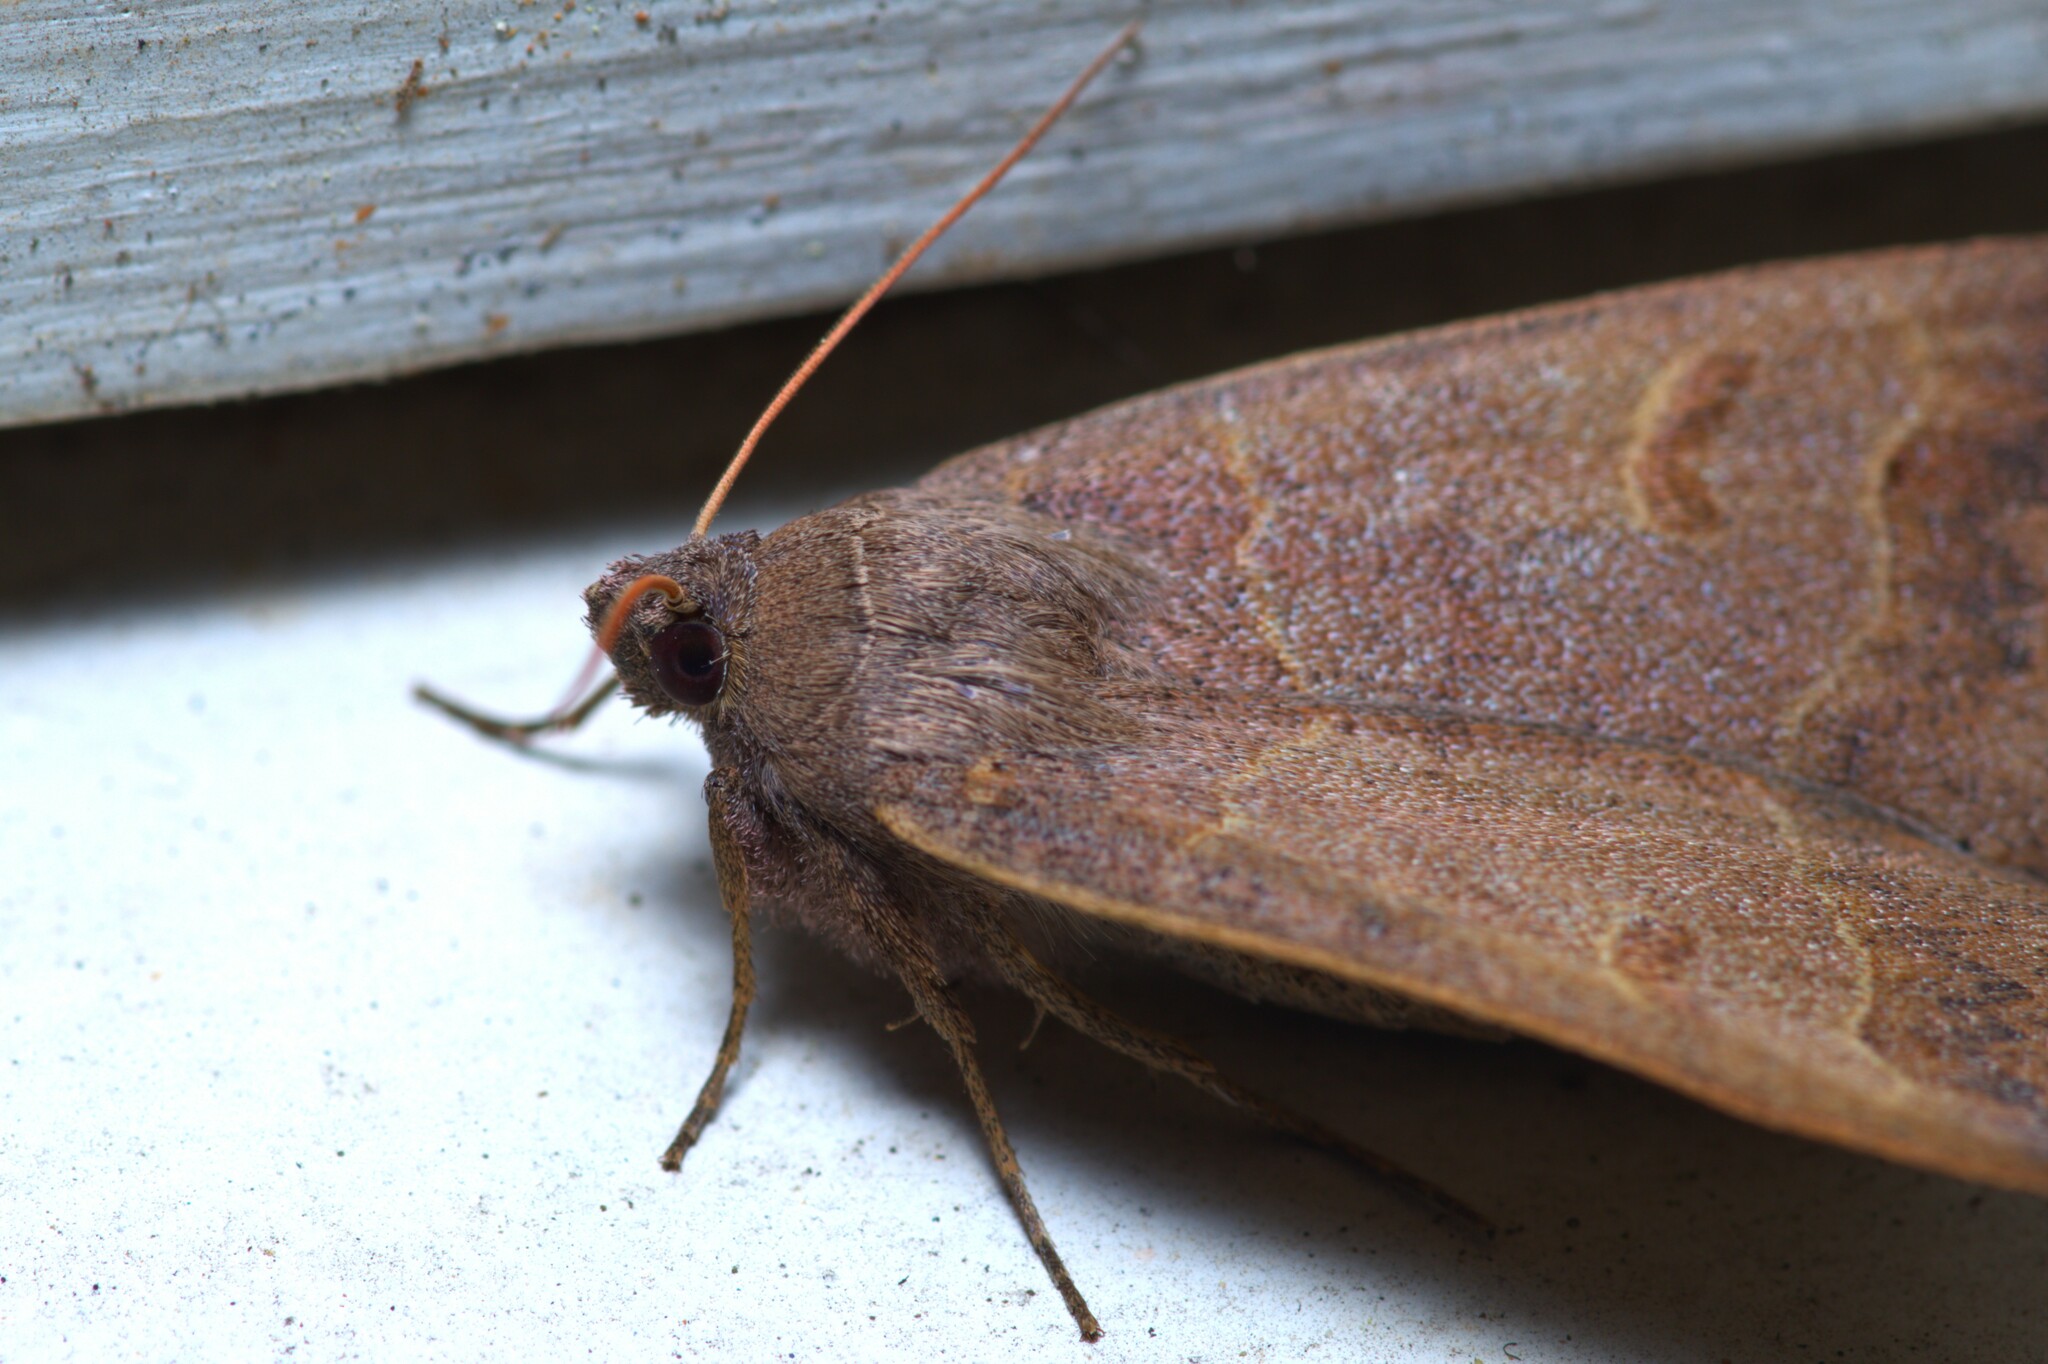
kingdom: Animalia
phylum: Arthropoda
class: Insecta
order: Lepidoptera
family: Erebidae
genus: Phoberia
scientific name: Phoberia atomaris
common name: Common oak moth
